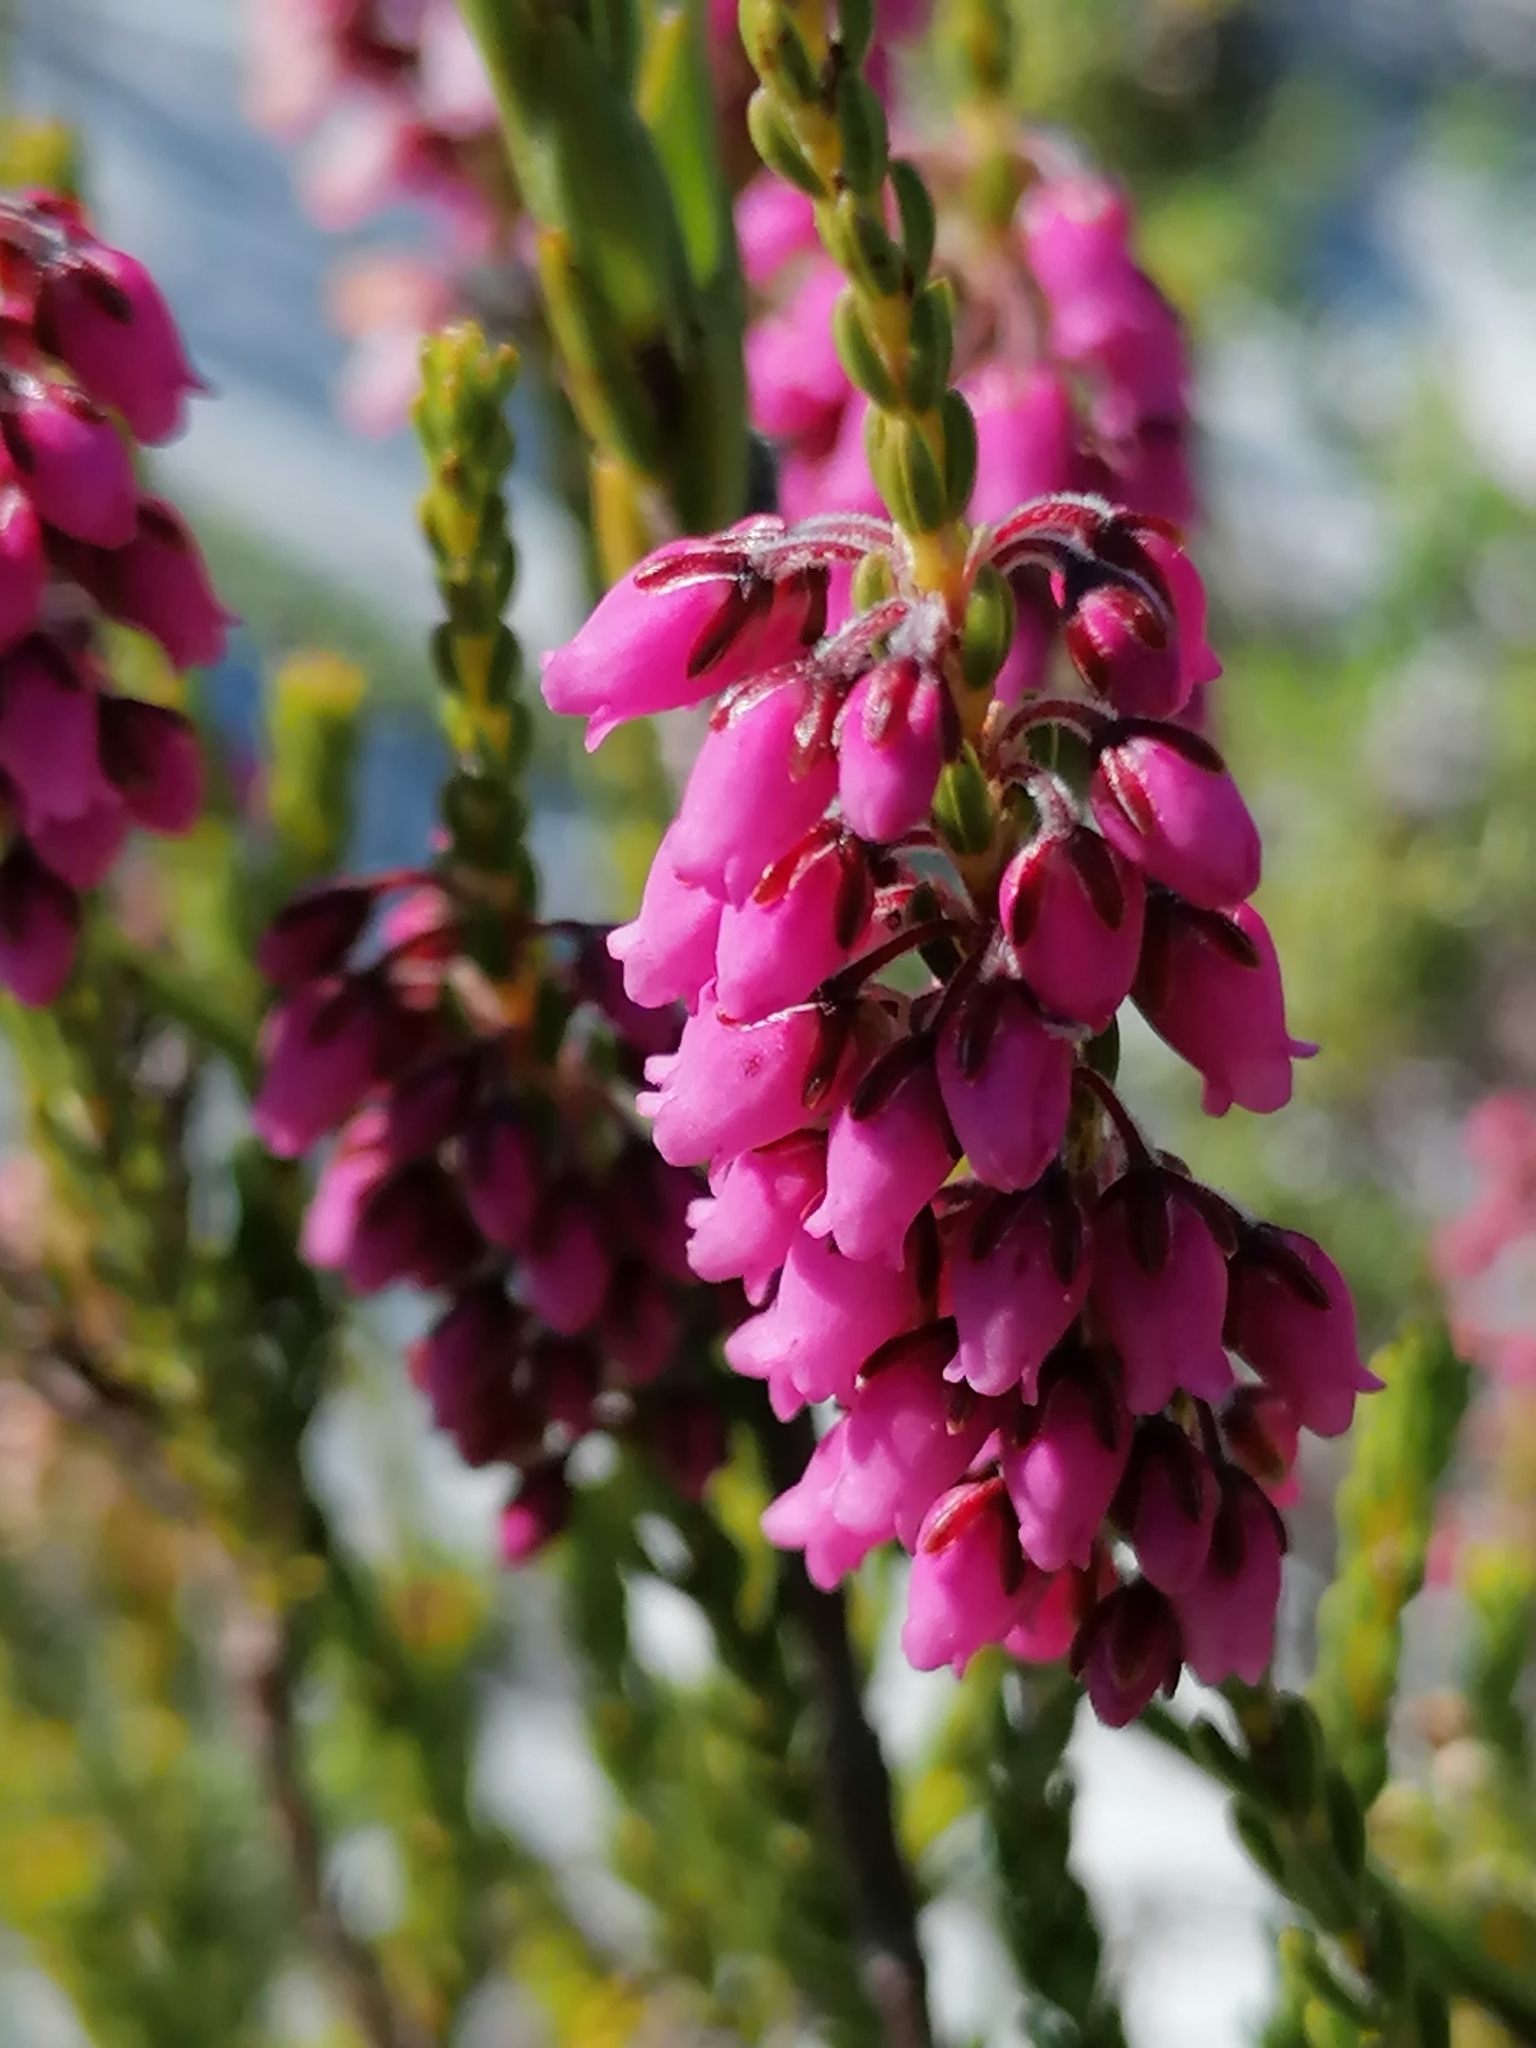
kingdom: Plantae
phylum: Tracheophyta
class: Magnoliopsida
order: Ericales
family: Ericaceae
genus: Erica
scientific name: Erica pulchella
